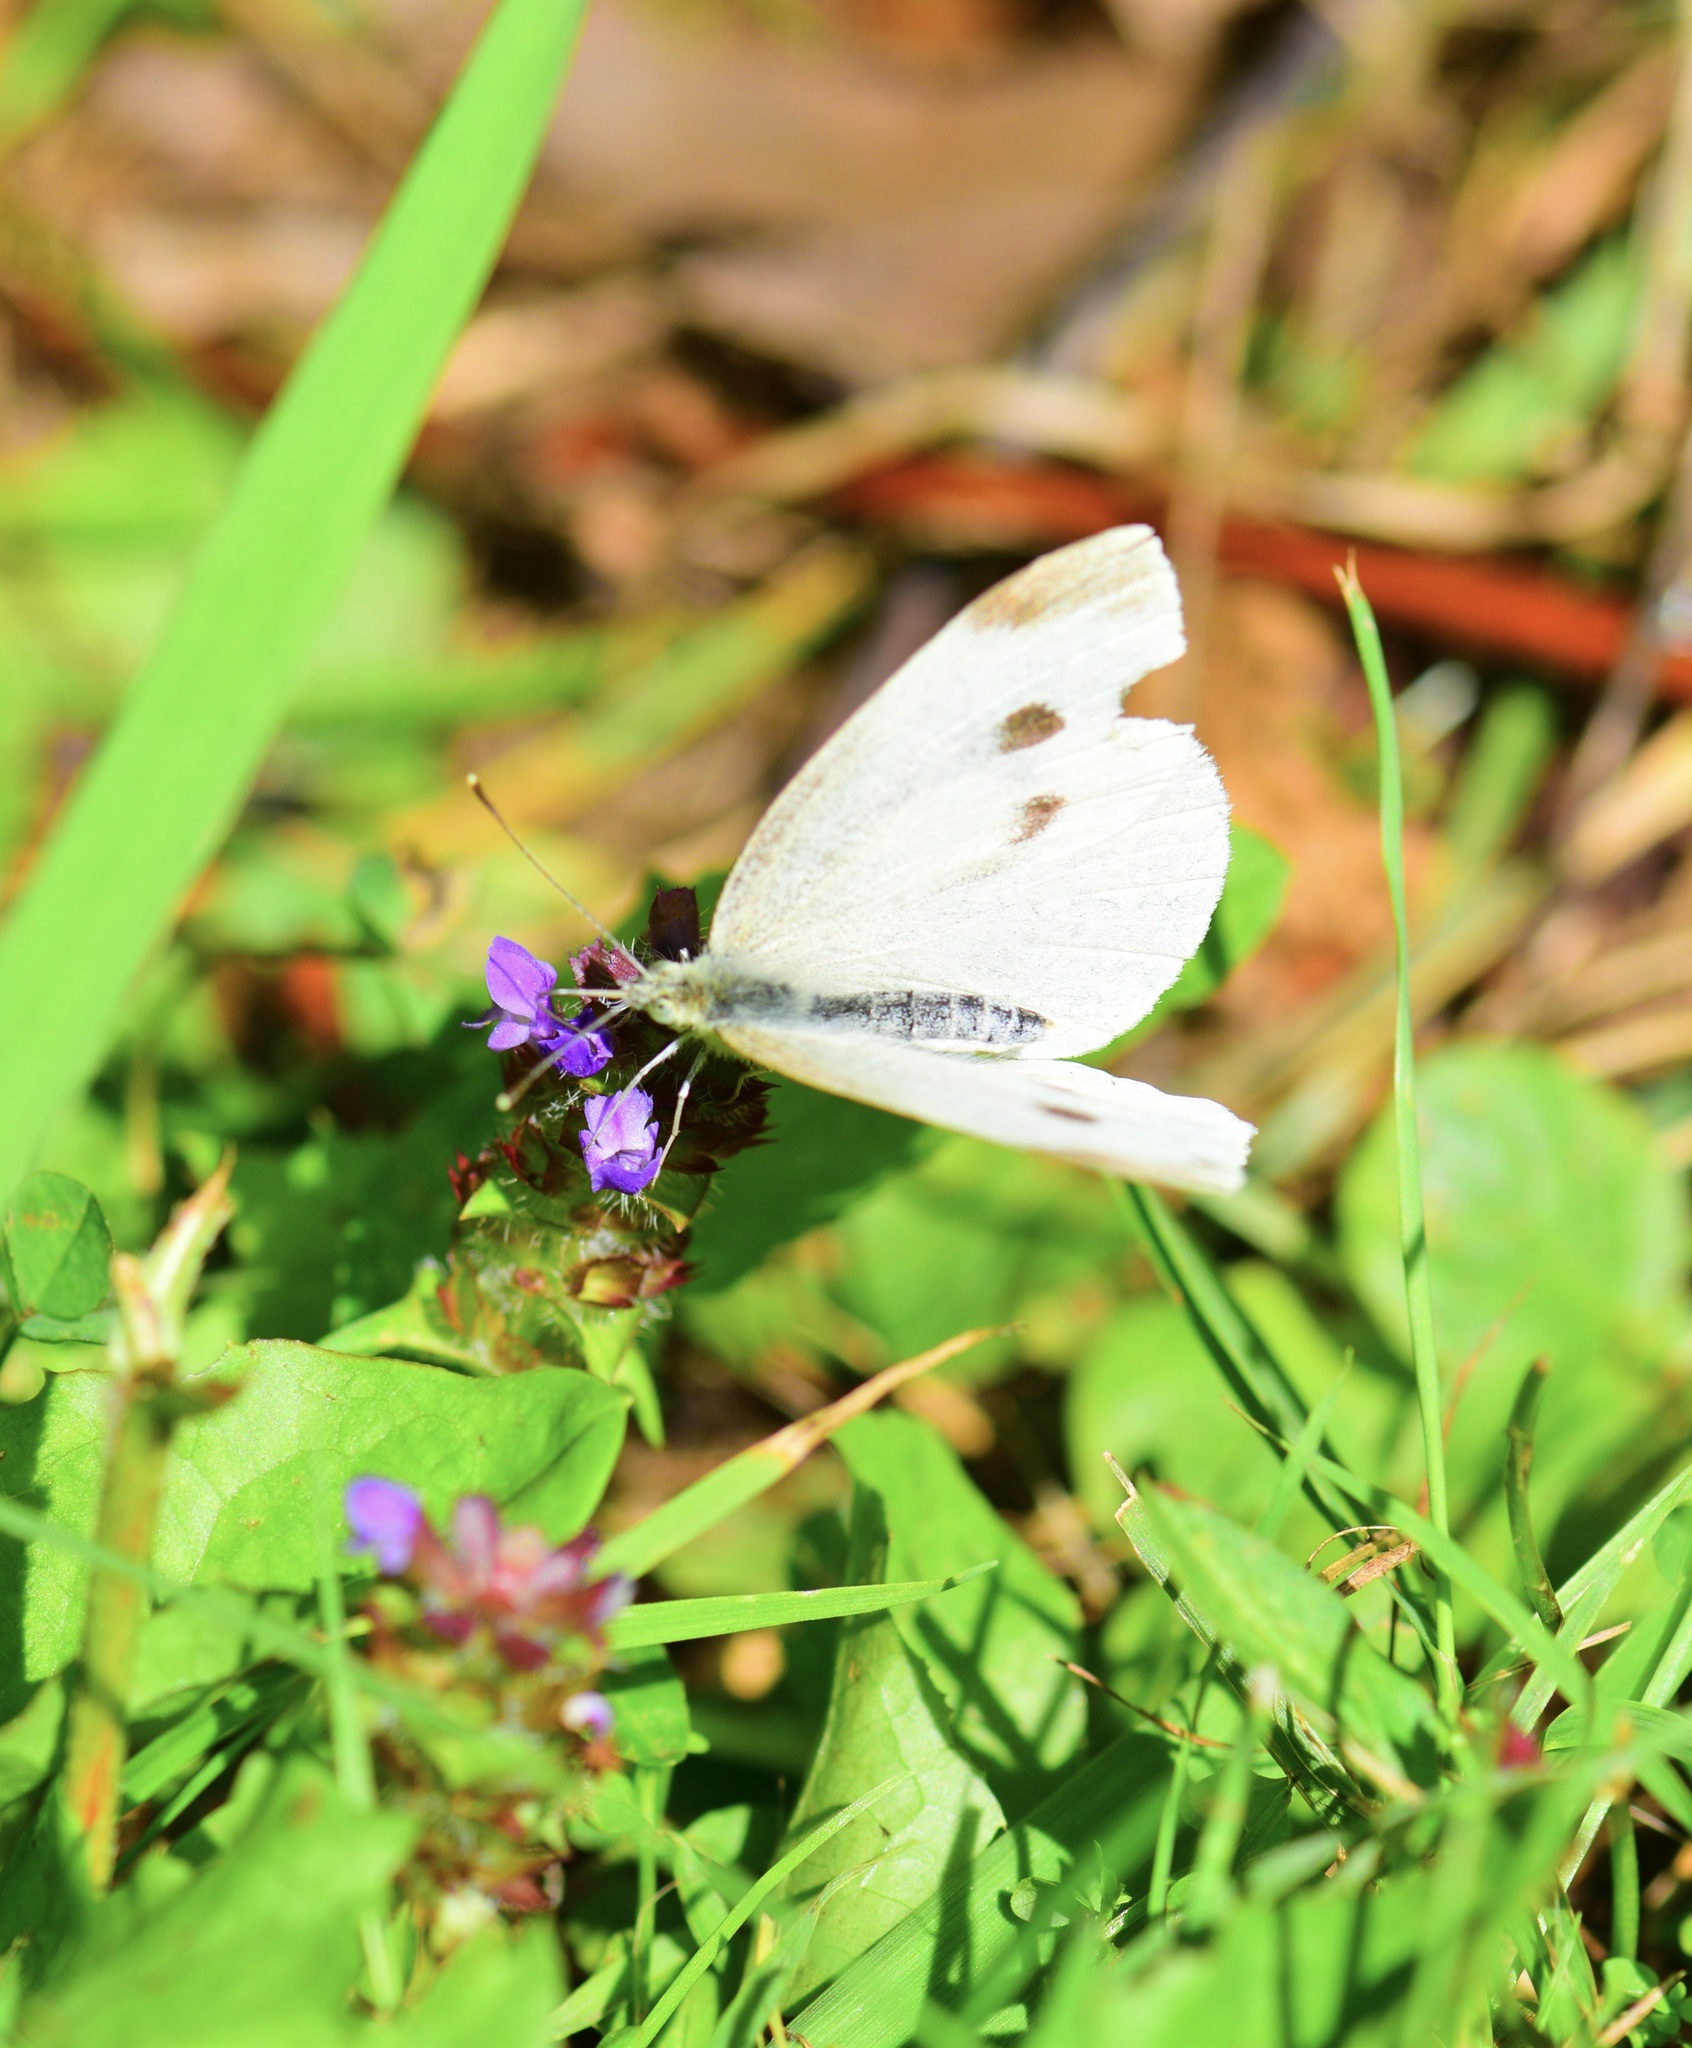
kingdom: Animalia
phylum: Arthropoda
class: Insecta
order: Lepidoptera
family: Pieridae
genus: Pieris
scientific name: Pieris rapae
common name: Small white
